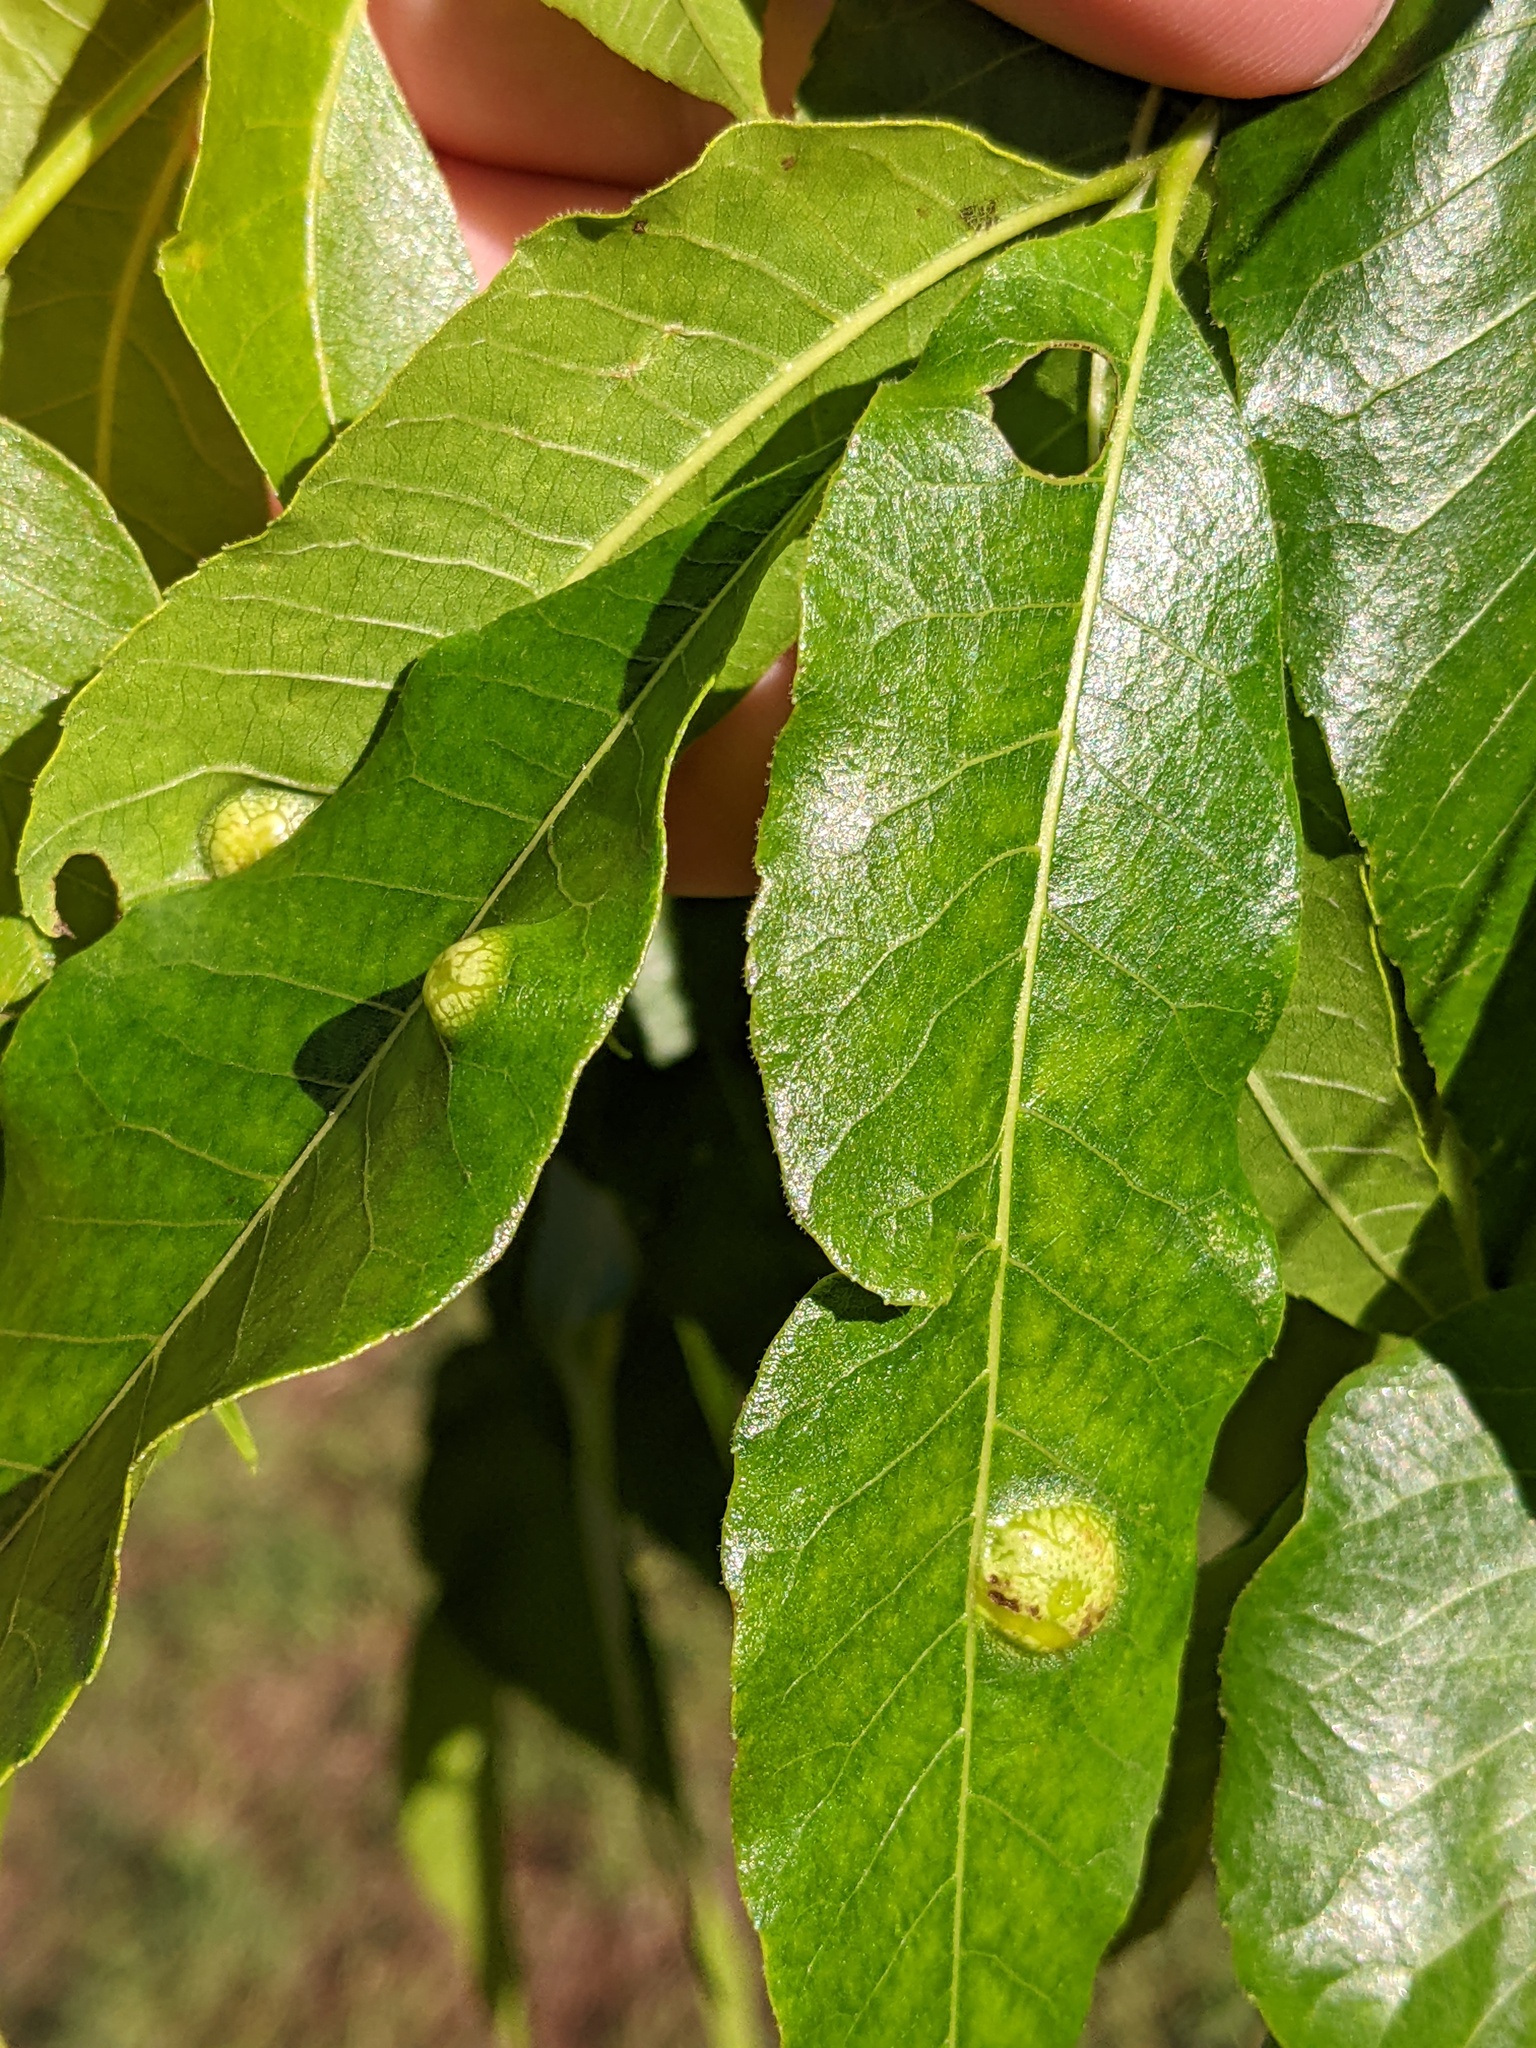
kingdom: Animalia
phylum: Arthropoda
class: Insecta
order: Hemiptera
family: Phylloxeridae
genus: Phylloxera
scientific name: Phylloxera russellae
